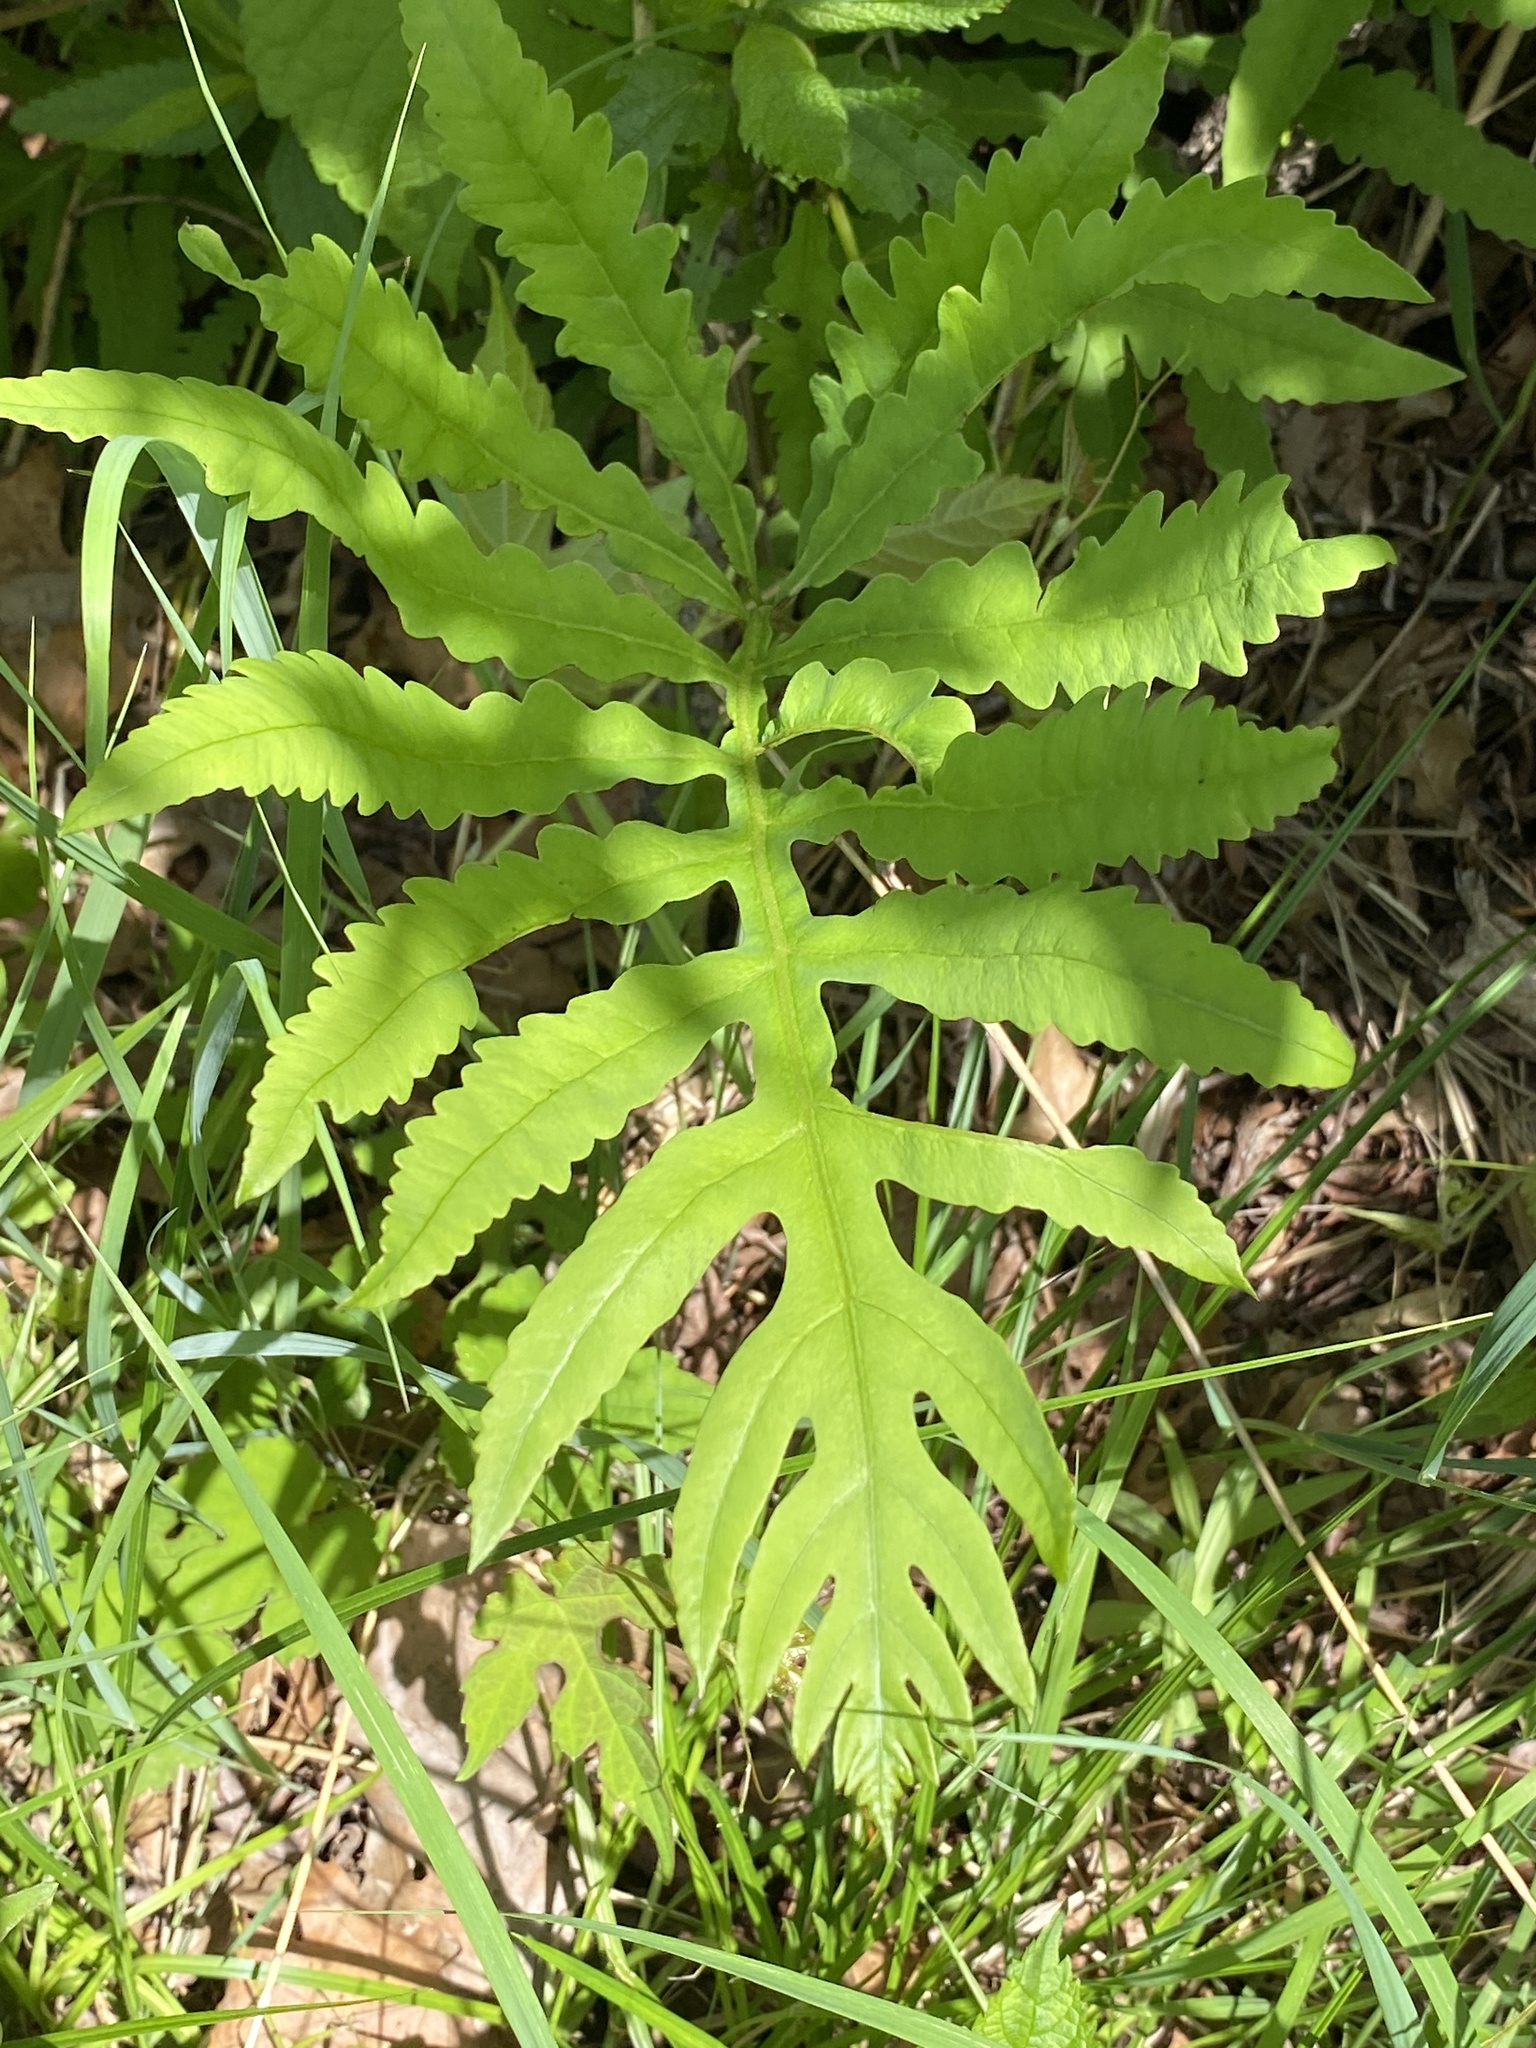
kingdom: Plantae
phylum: Tracheophyta
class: Polypodiopsida
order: Polypodiales
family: Onocleaceae
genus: Onoclea
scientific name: Onoclea sensibilis
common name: Sensitive fern
